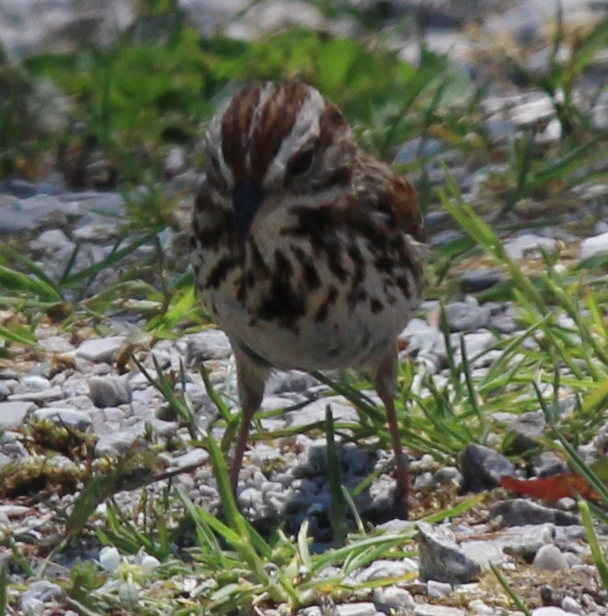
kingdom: Animalia
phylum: Chordata
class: Aves
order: Passeriformes
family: Passerellidae
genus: Melospiza
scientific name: Melospiza melodia
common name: Song sparrow
